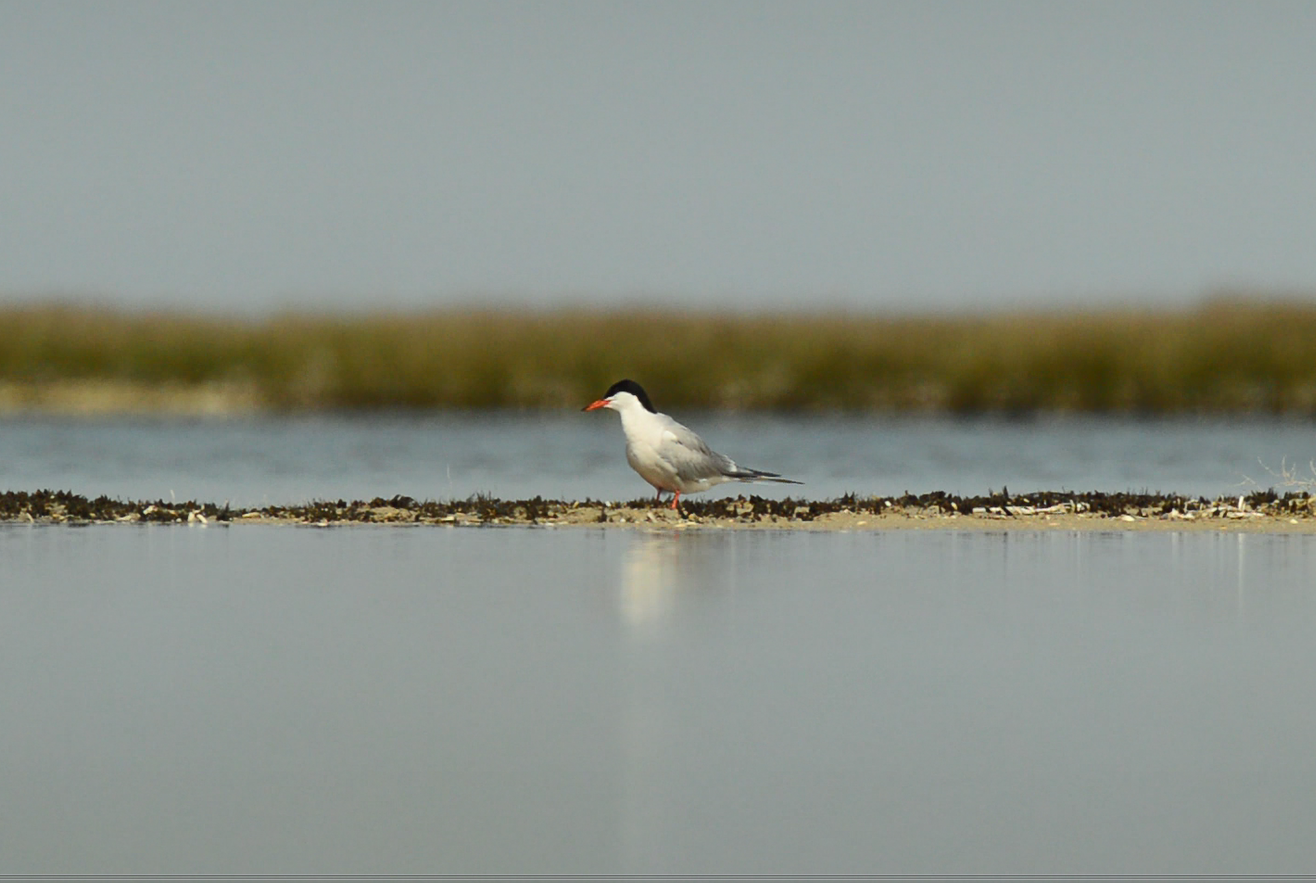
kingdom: Animalia
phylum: Chordata
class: Aves
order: Charadriiformes
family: Laridae
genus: Sterna
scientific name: Sterna hirundo
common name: Common tern
